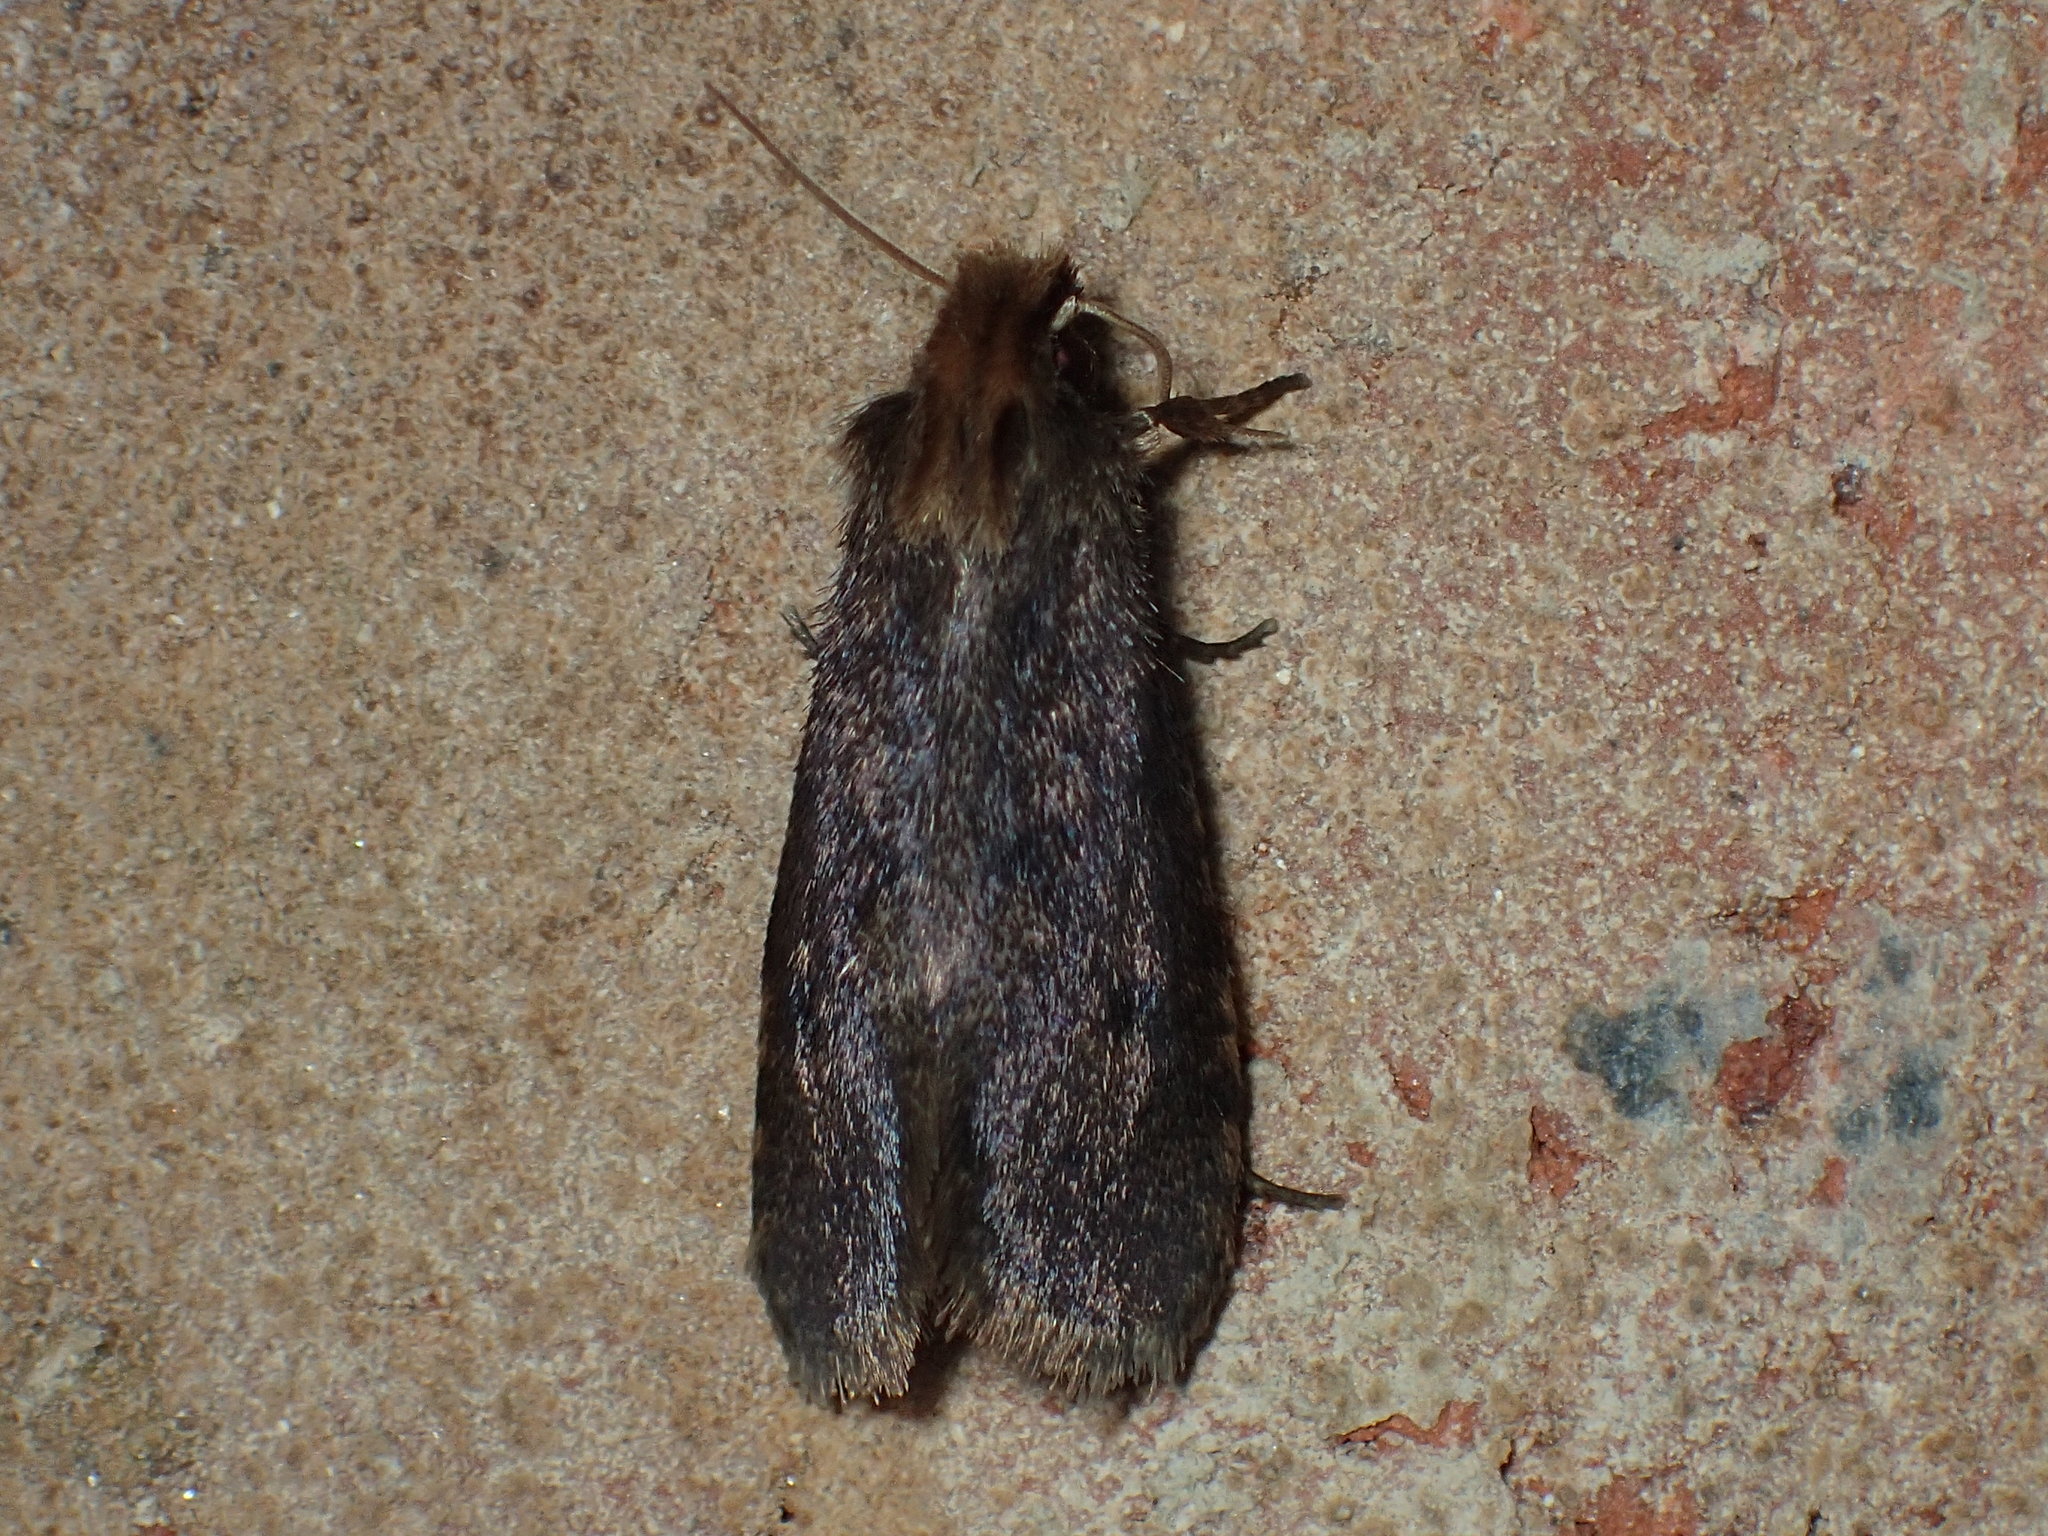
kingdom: Animalia
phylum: Arthropoda
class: Insecta
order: Lepidoptera
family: Tineidae
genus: Acrolophus
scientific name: Acrolophus propinqua
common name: Walsingham's grass tubeworm moth
